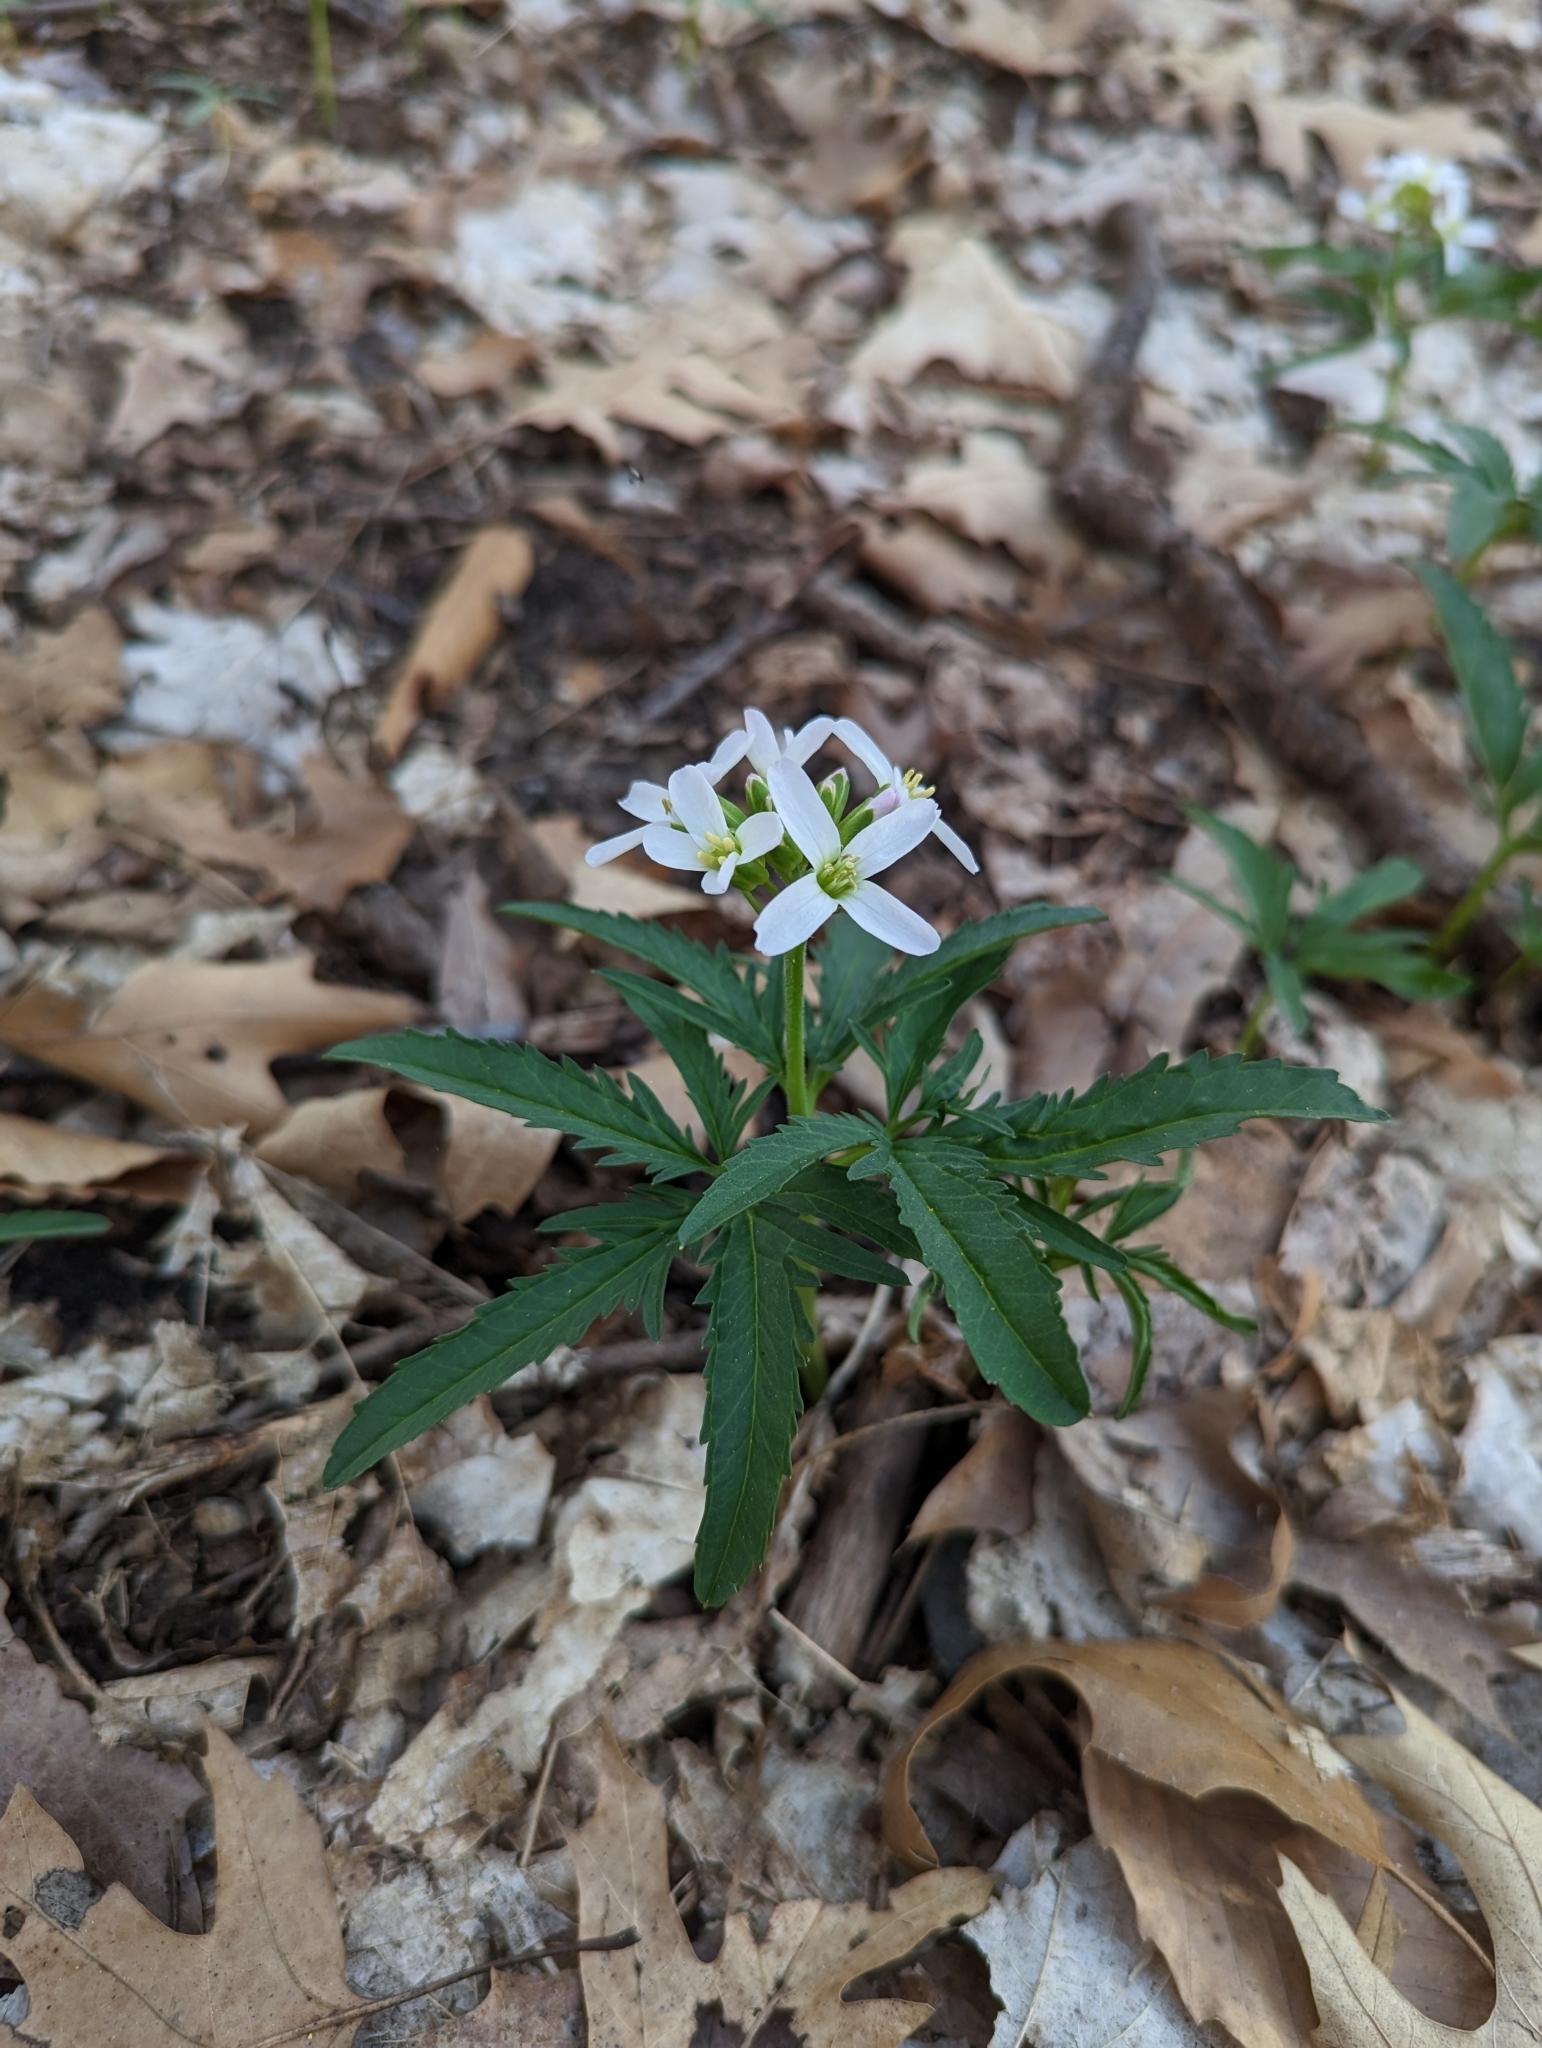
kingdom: Plantae
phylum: Tracheophyta
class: Magnoliopsida
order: Brassicales
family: Brassicaceae
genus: Cardamine
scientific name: Cardamine concatenata
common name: Cut-leaf toothcup
